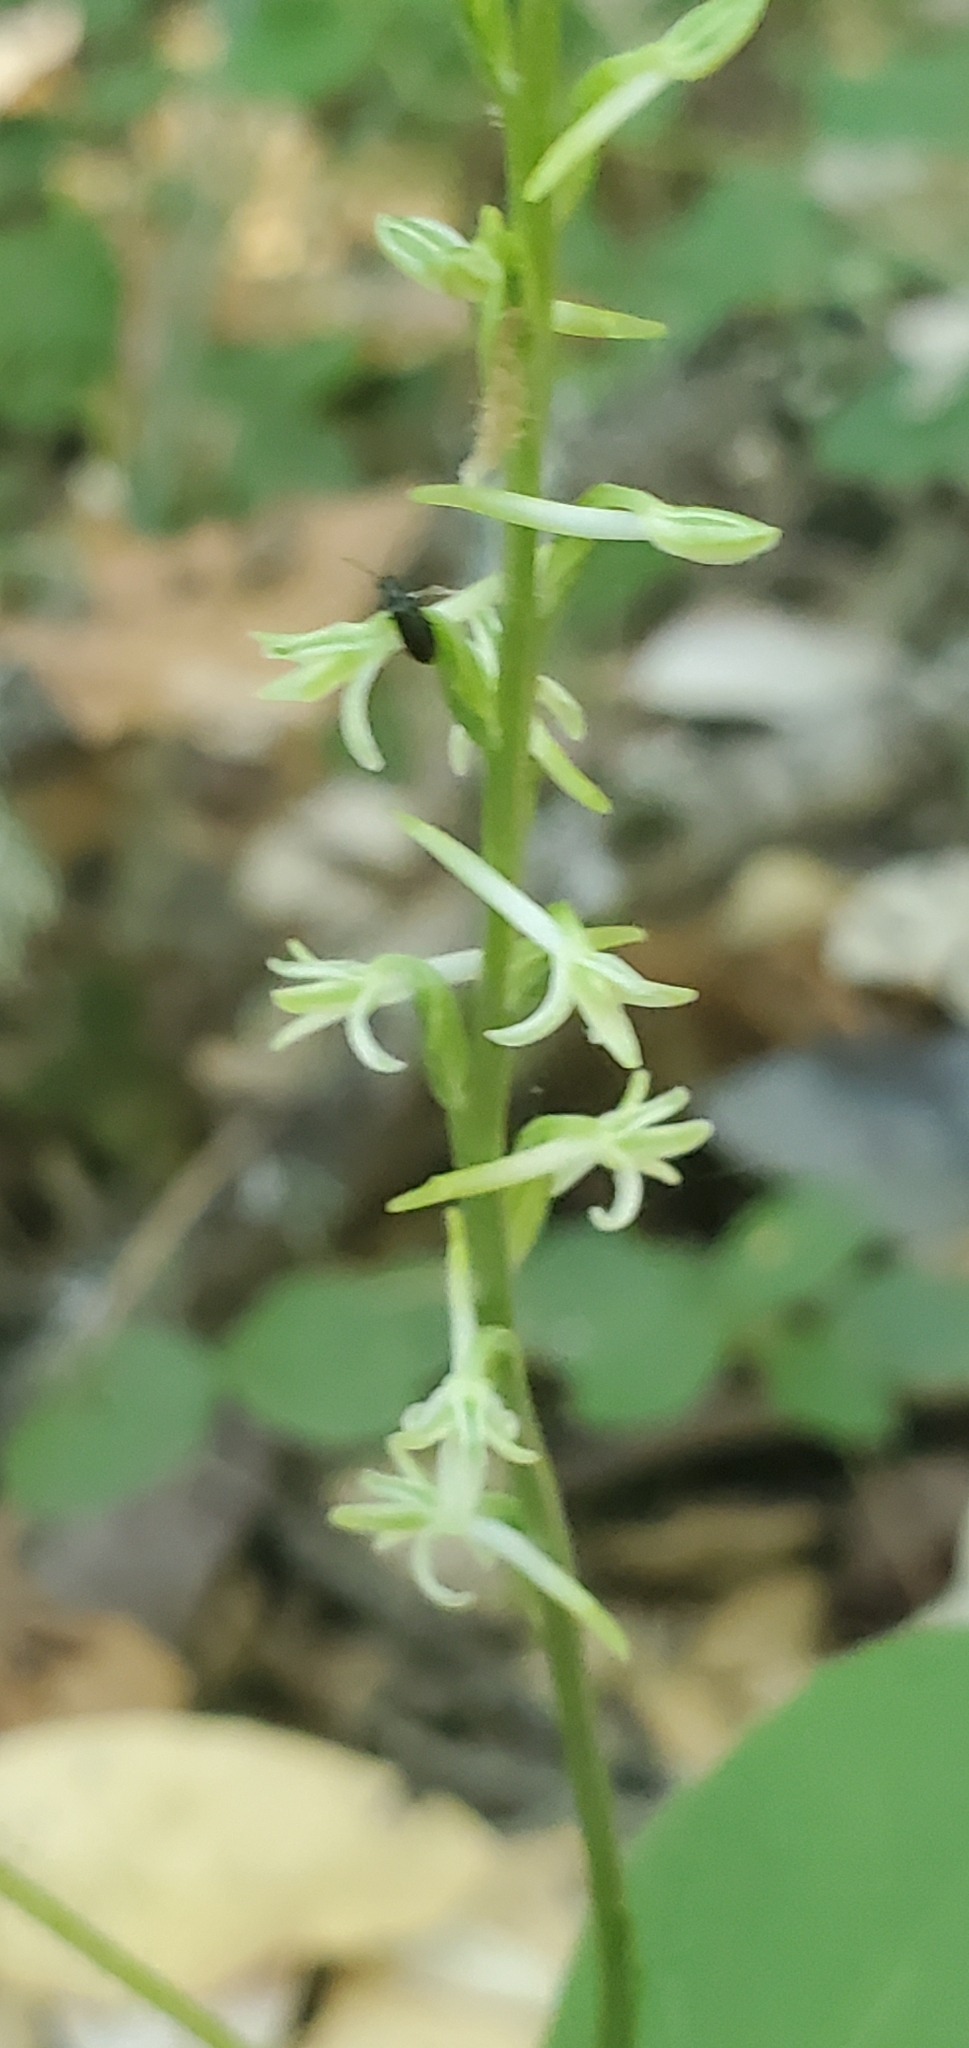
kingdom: Plantae
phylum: Tracheophyta
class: Liliopsida
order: Asparagales
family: Orchidaceae
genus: Platanthera
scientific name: Platanthera transversa
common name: Royal rein orchid
